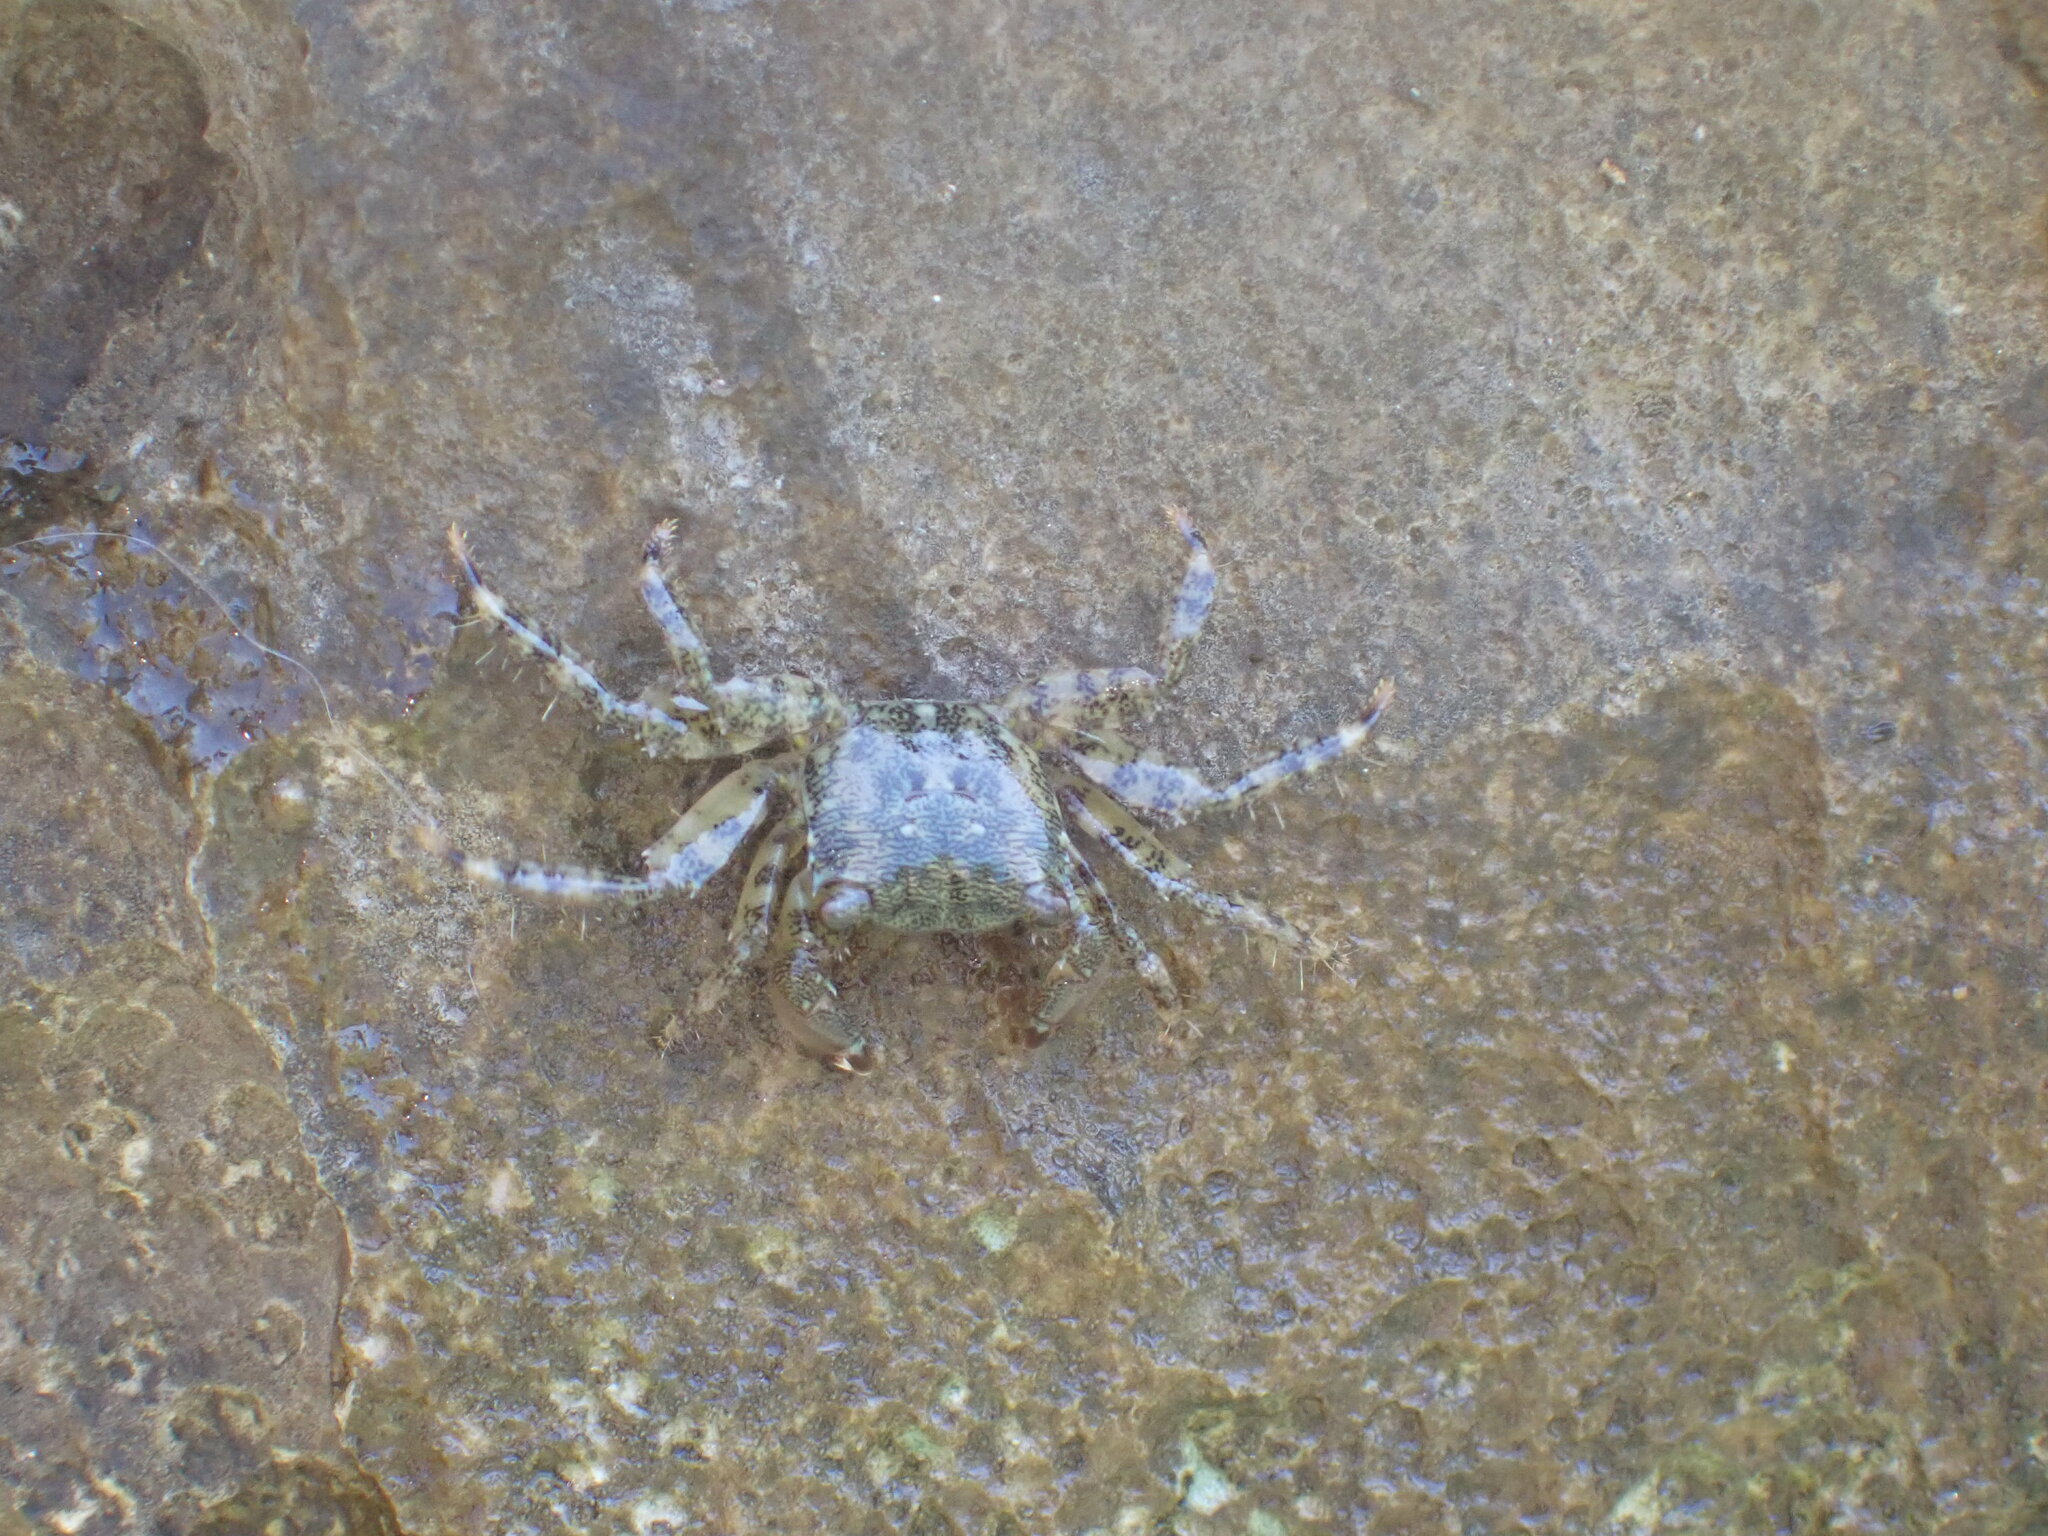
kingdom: Animalia
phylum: Arthropoda
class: Malacostraca
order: Decapoda
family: Grapsidae
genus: Pachygrapsus
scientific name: Pachygrapsus marmoratus
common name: Marbled rock crab
